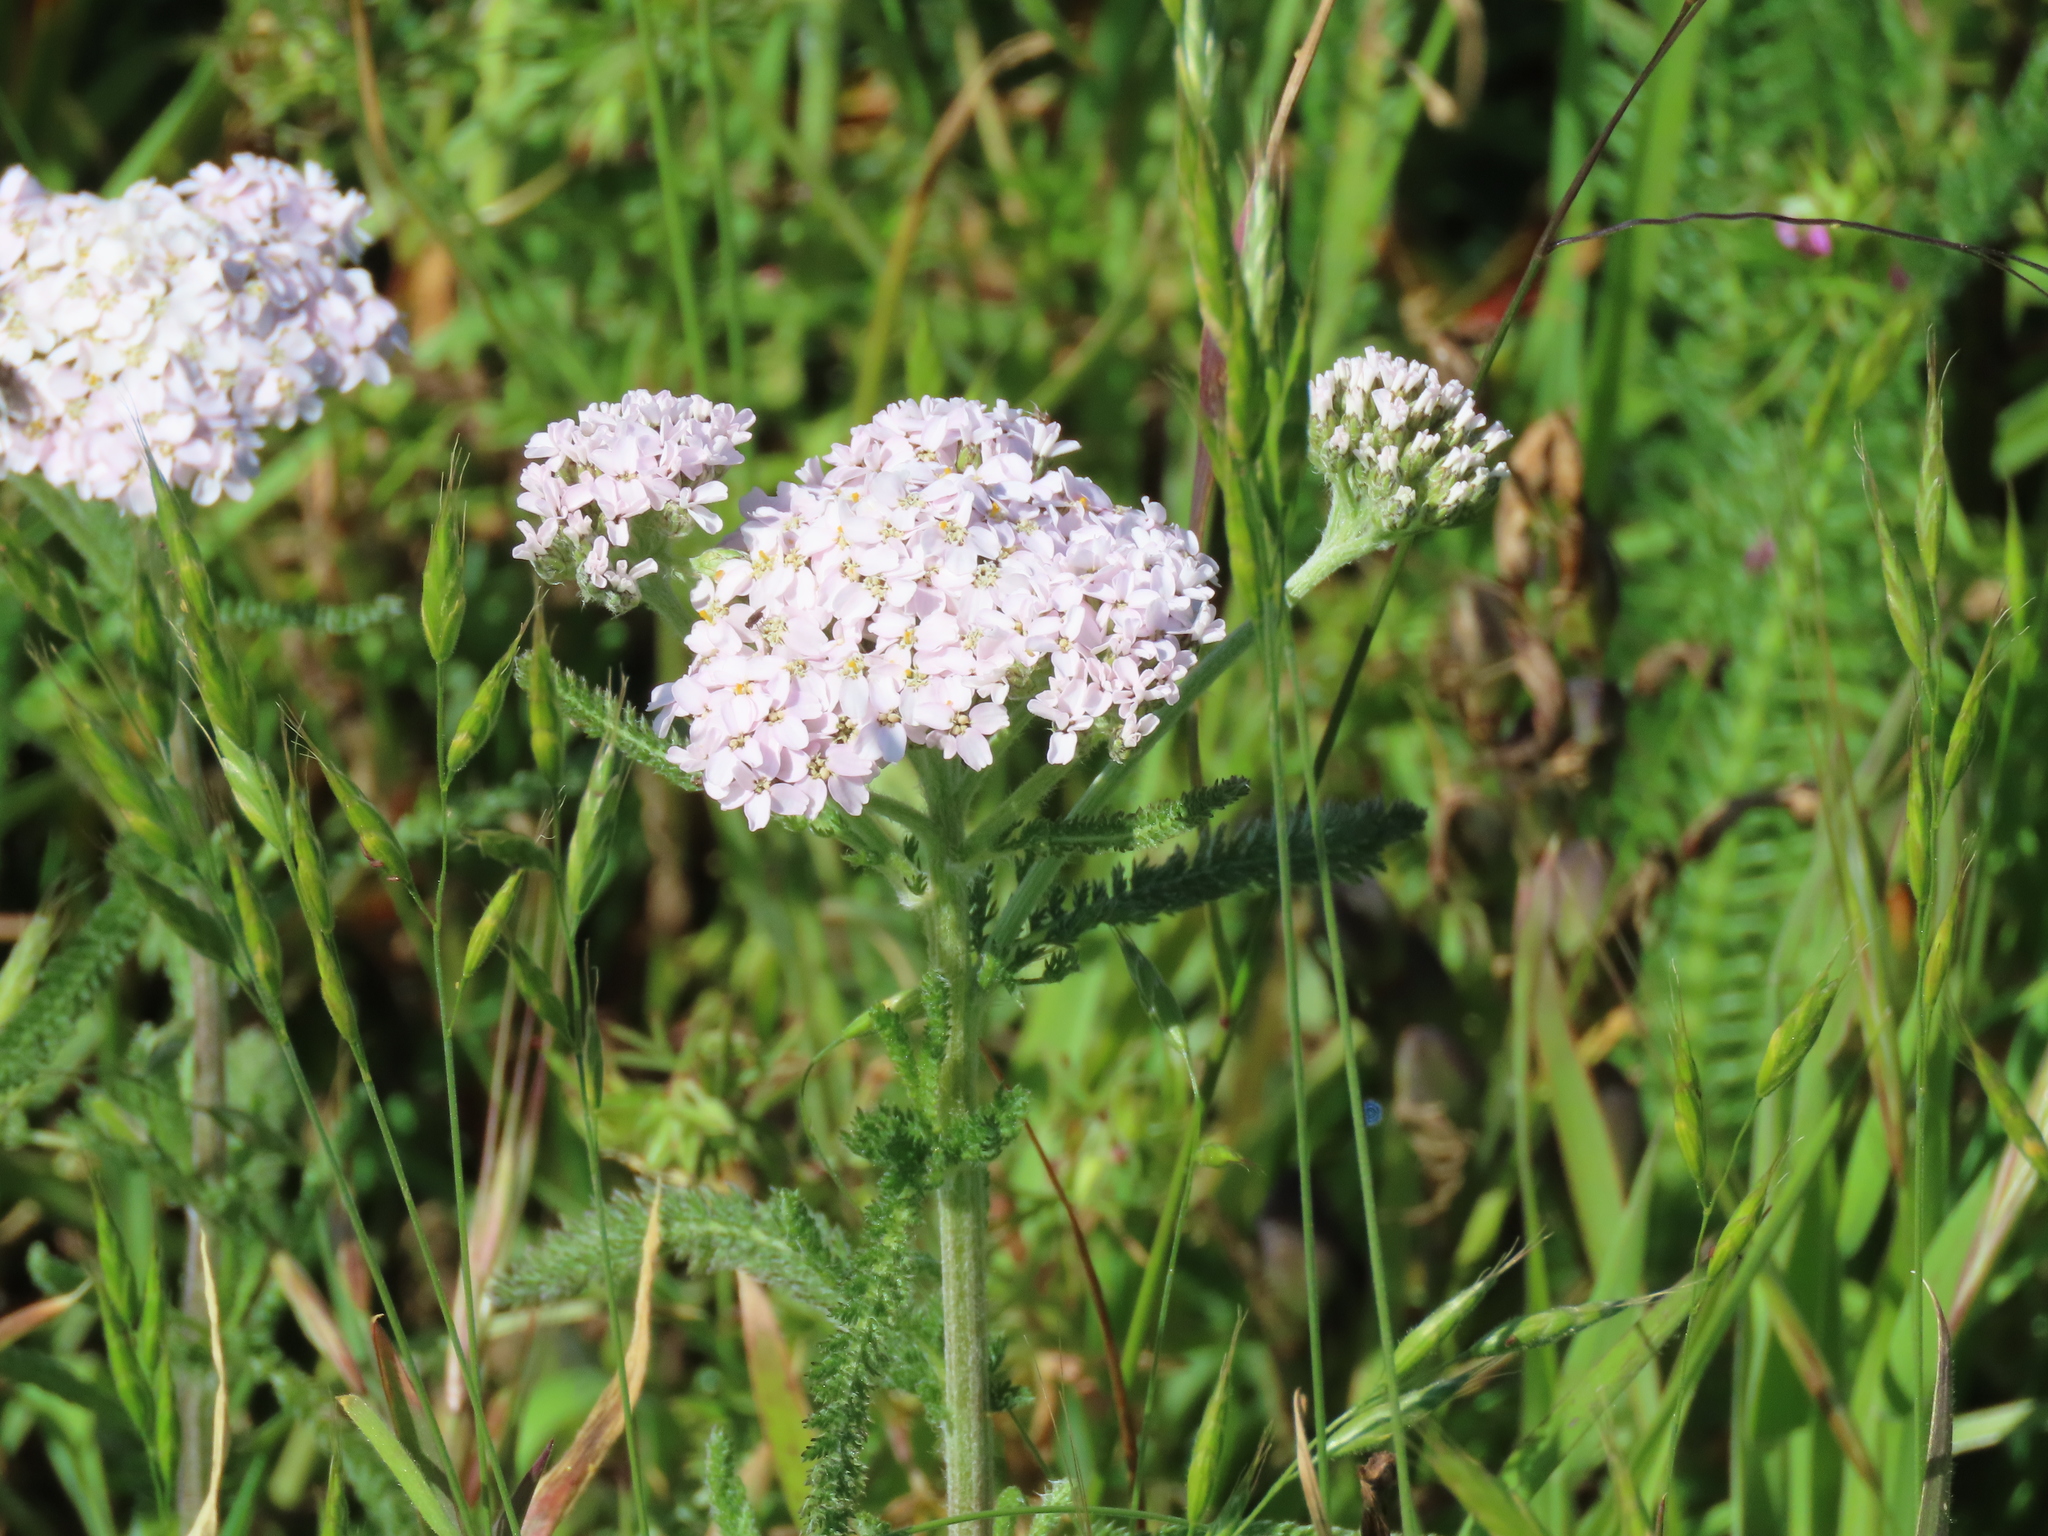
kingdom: Plantae
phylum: Tracheophyta
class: Magnoliopsida
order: Asterales
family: Asteraceae
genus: Achillea
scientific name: Achillea millefolium
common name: Yarrow
